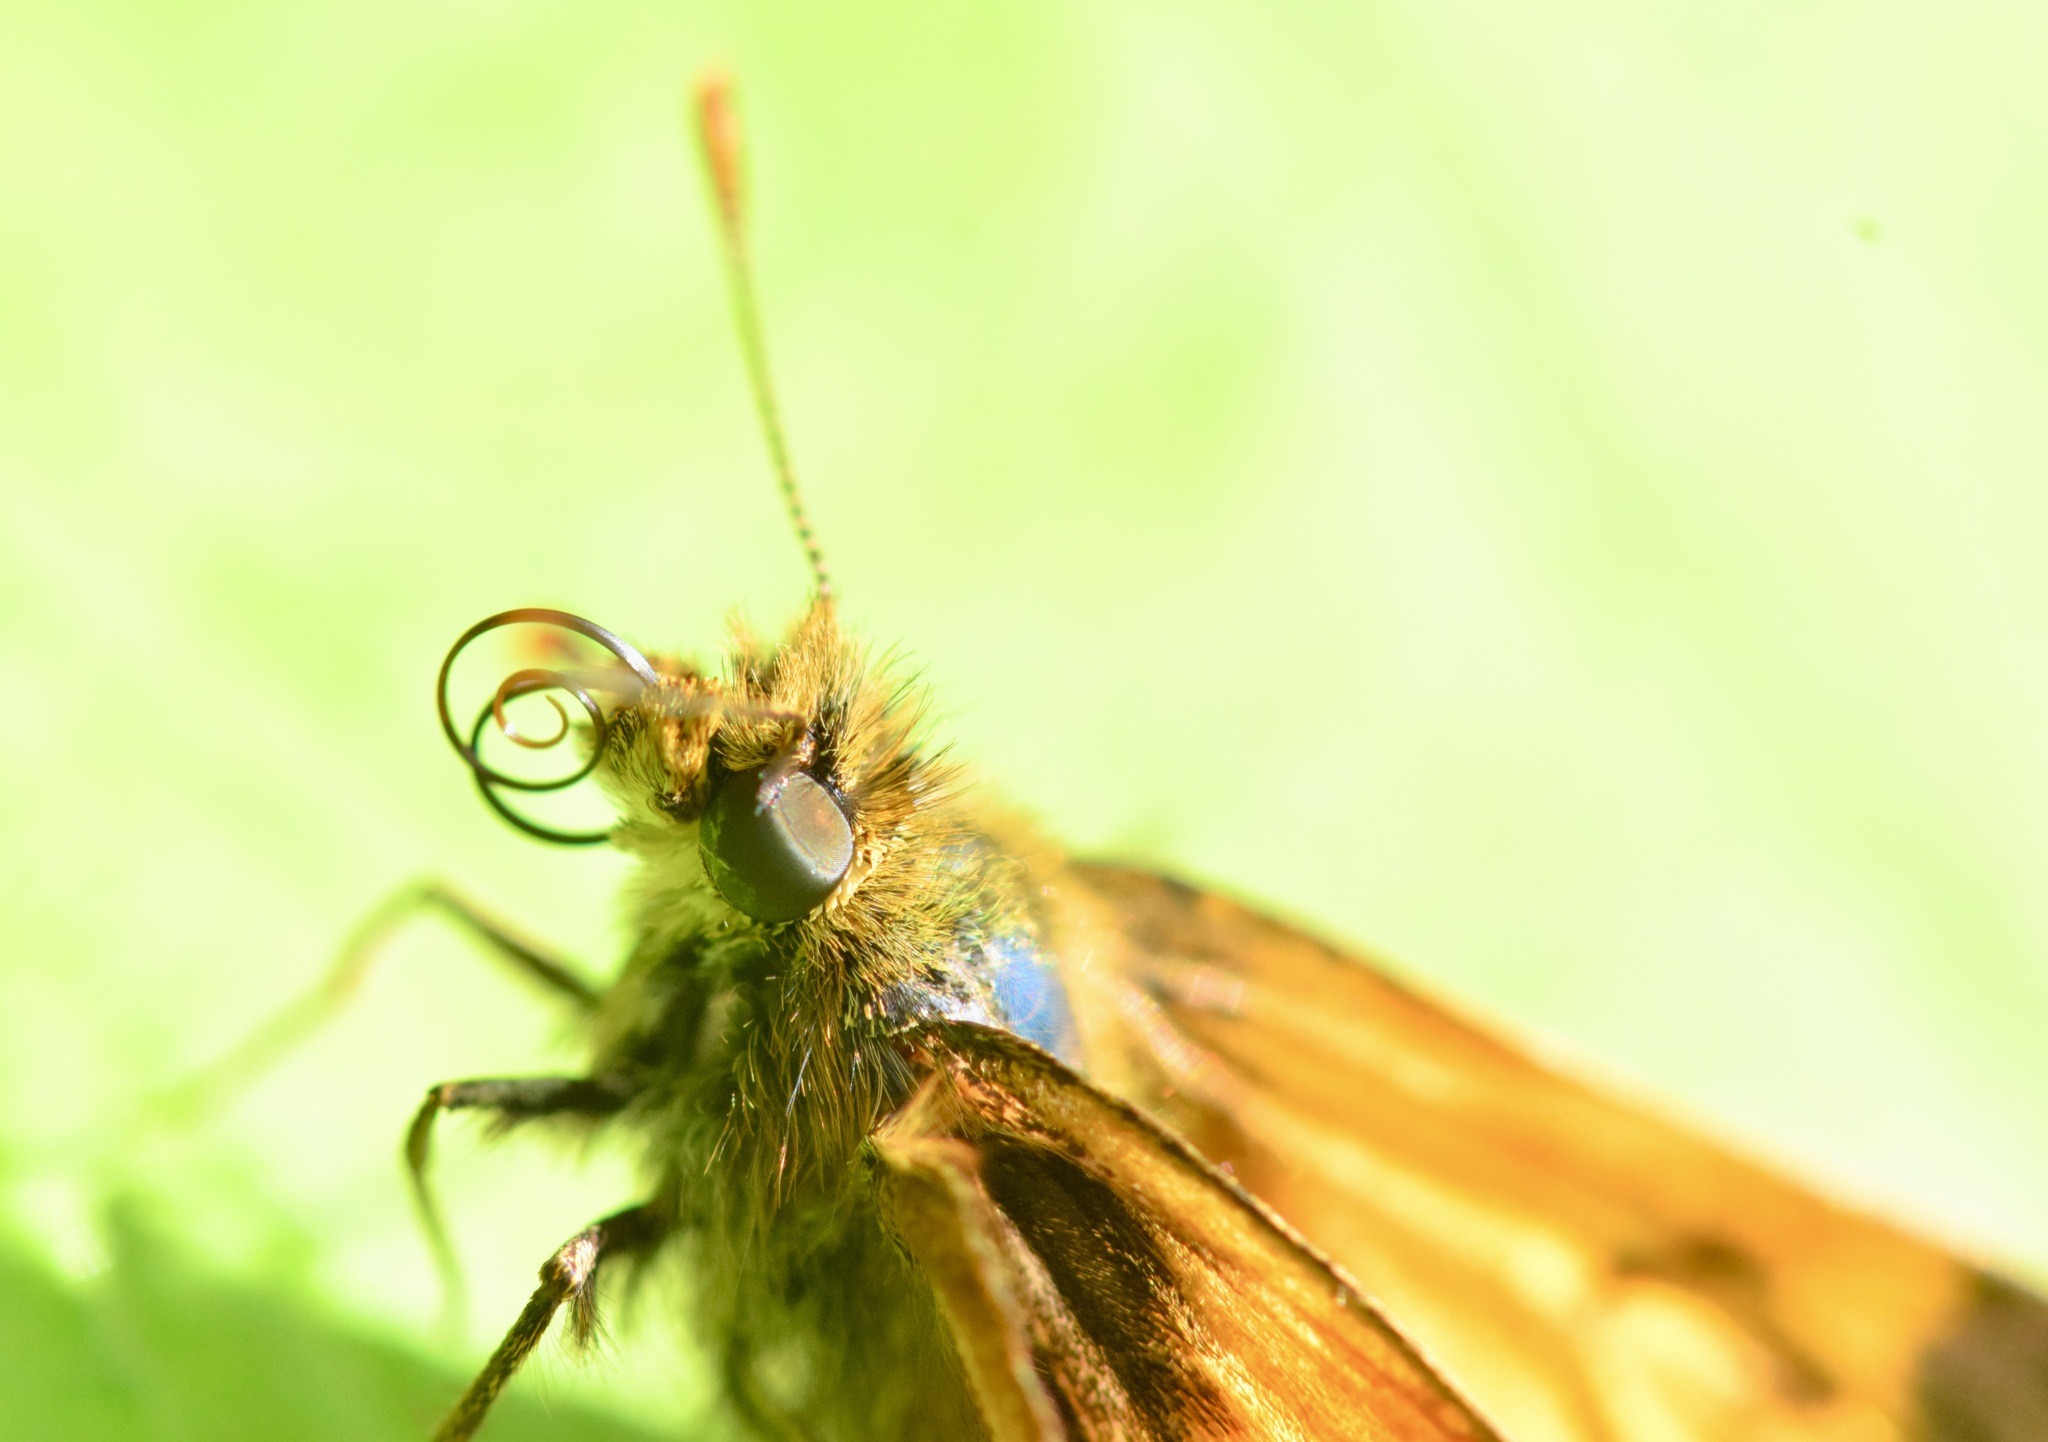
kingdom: Animalia
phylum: Arthropoda
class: Insecta
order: Lepidoptera
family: Hesperiidae
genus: Lon
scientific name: Lon hobomok
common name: Hobomok skipper
